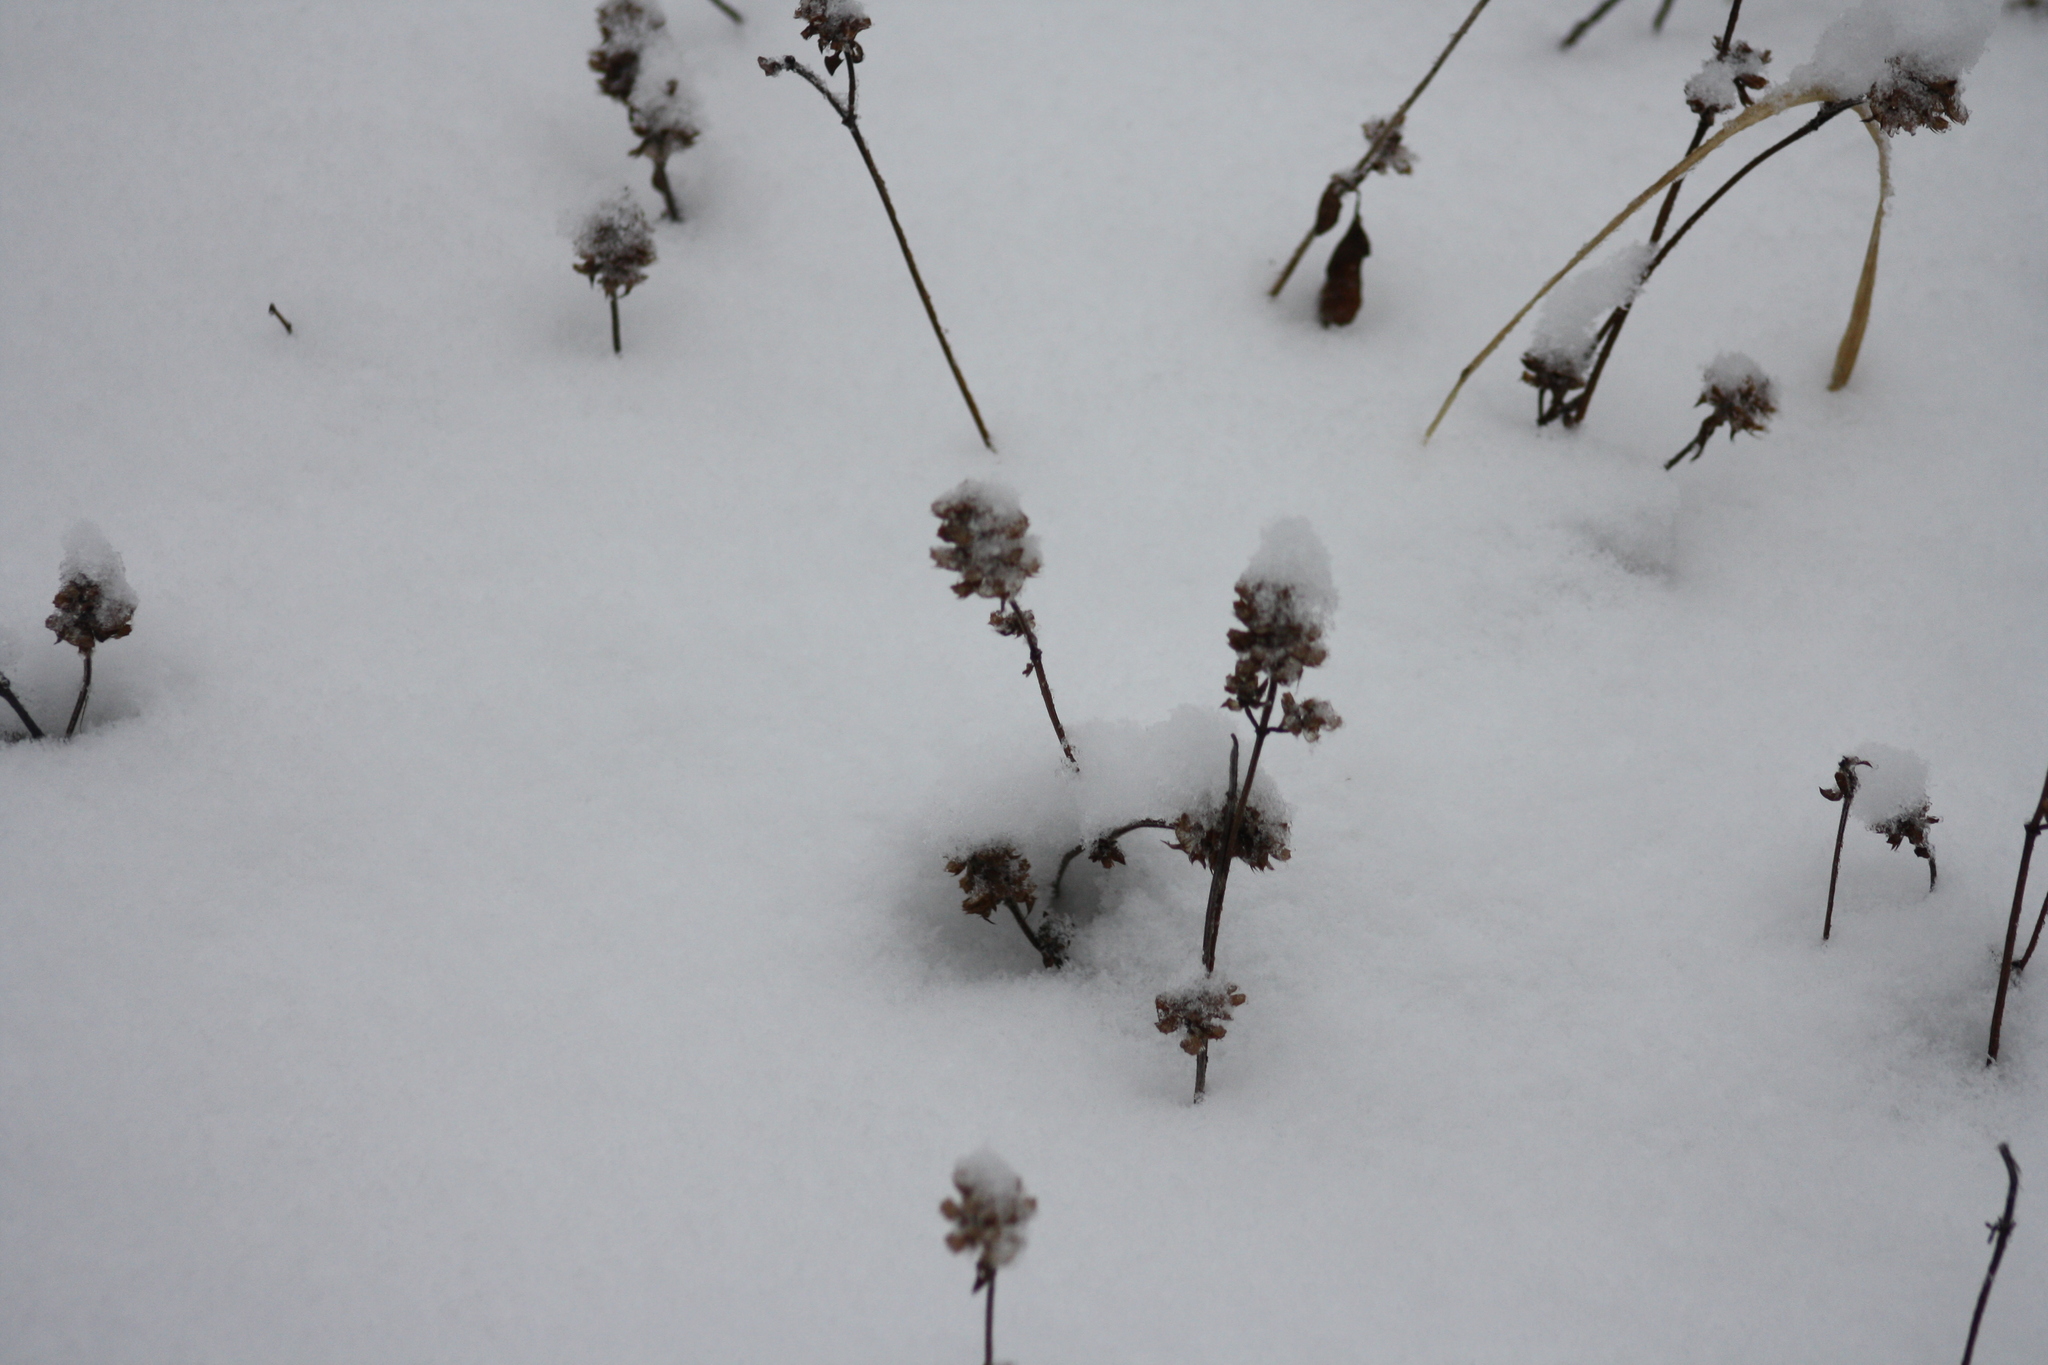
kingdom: Plantae
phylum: Tracheophyta
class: Magnoliopsida
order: Lamiales
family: Lamiaceae
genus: Prunella
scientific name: Prunella vulgaris
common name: Heal-all
